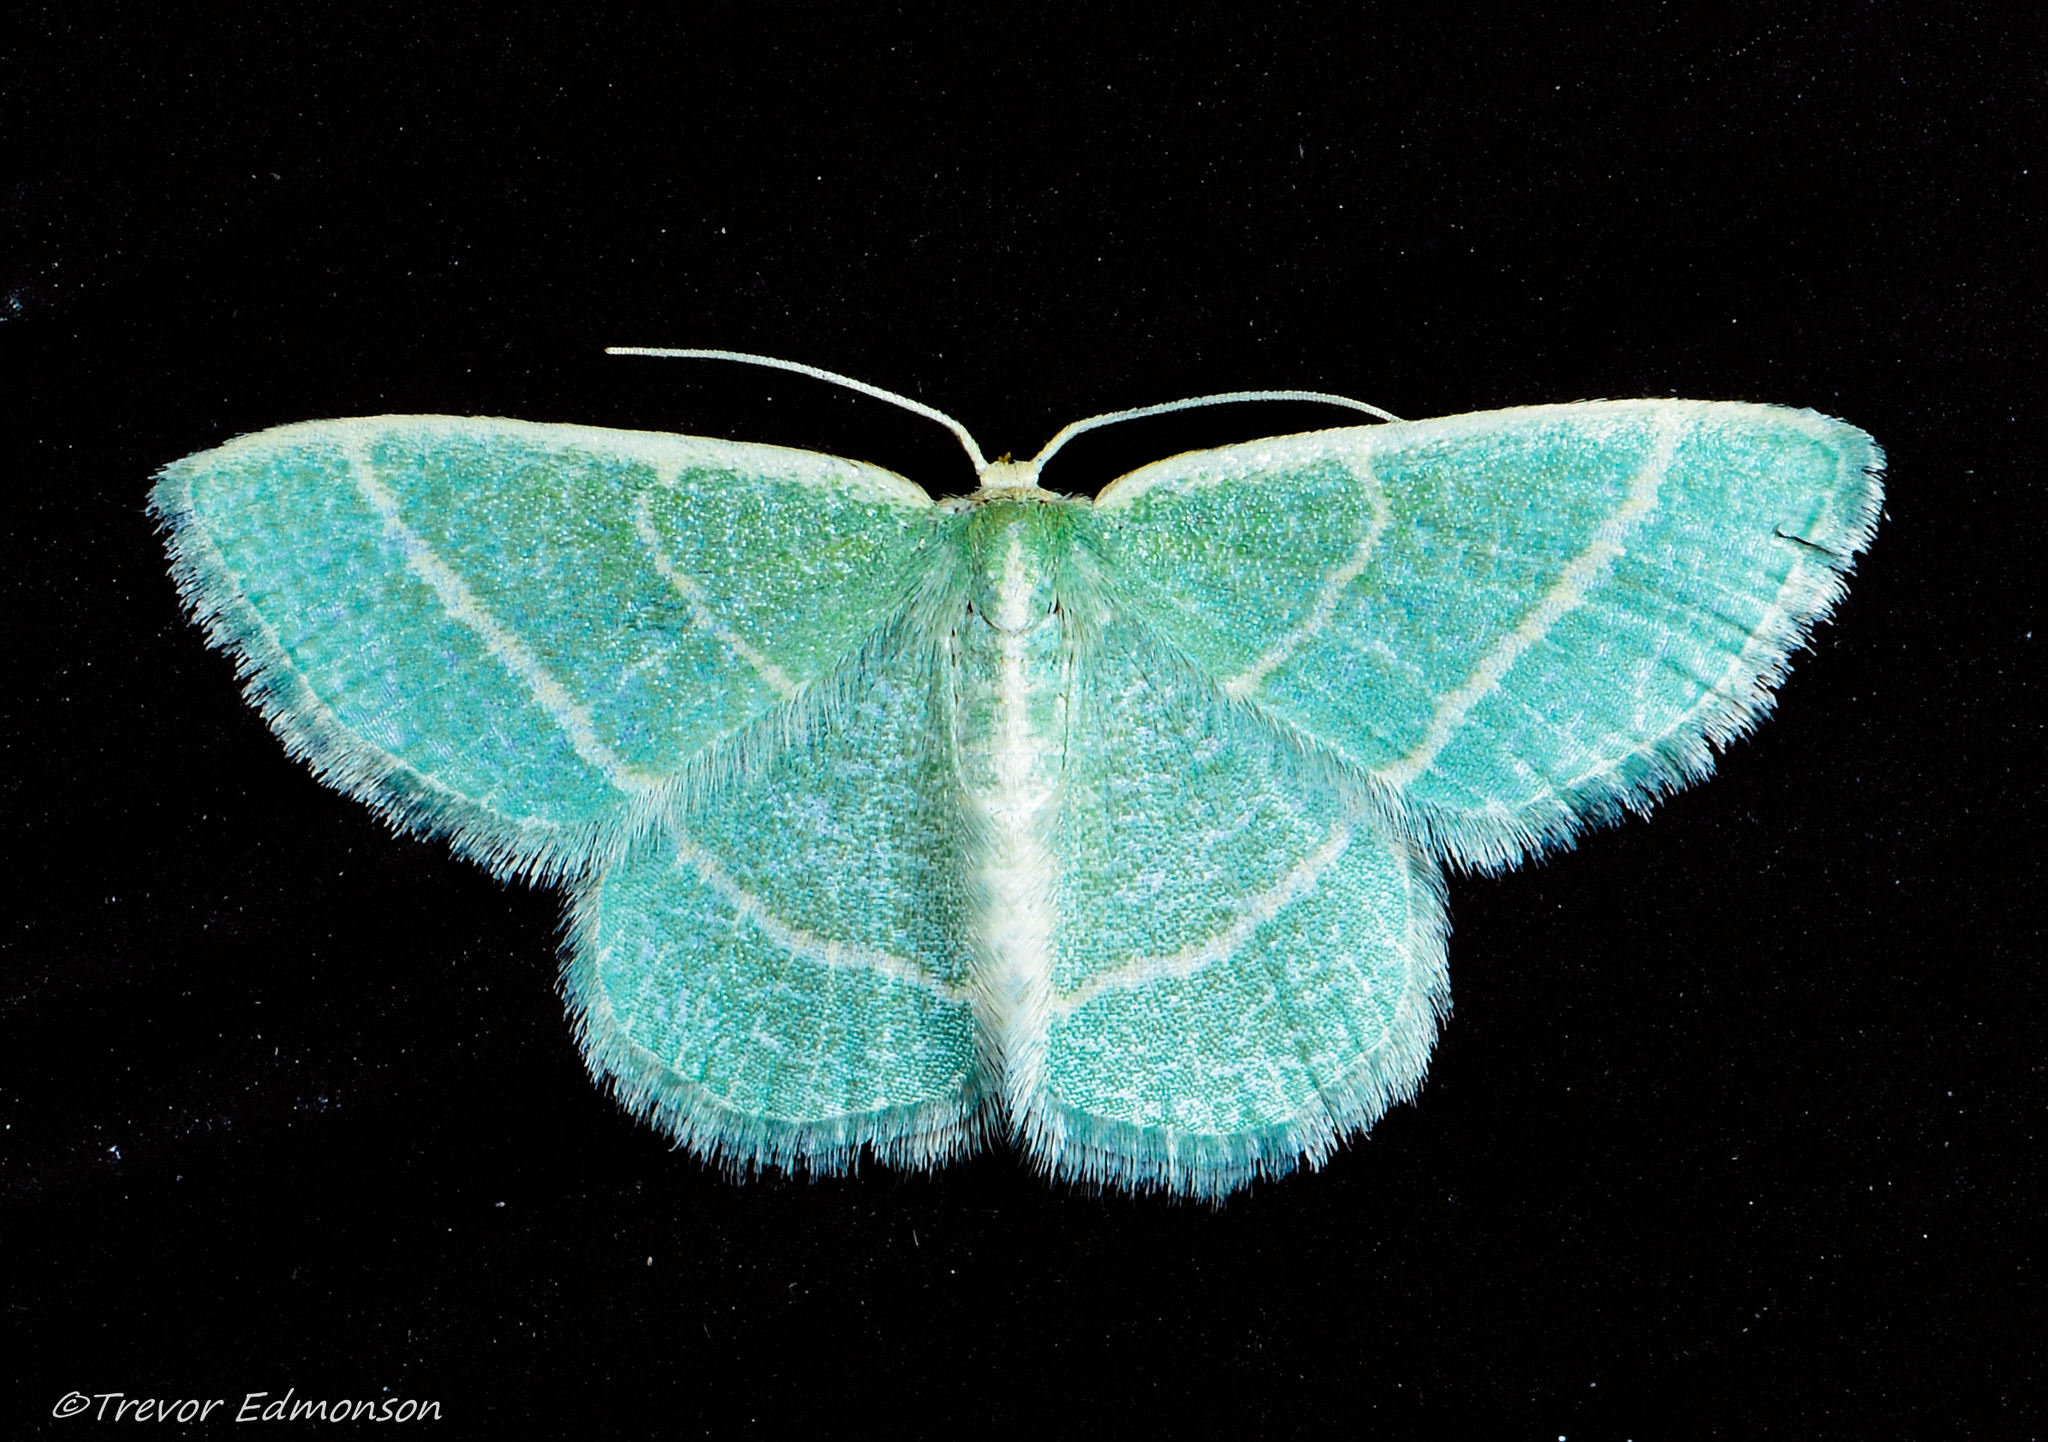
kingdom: Animalia
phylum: Arthropoda
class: Insecta
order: Lepidoptera
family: Geometridae
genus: Chlorochlamys
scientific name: Chlorochlamys chloroleucaria
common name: Blackberry looper
